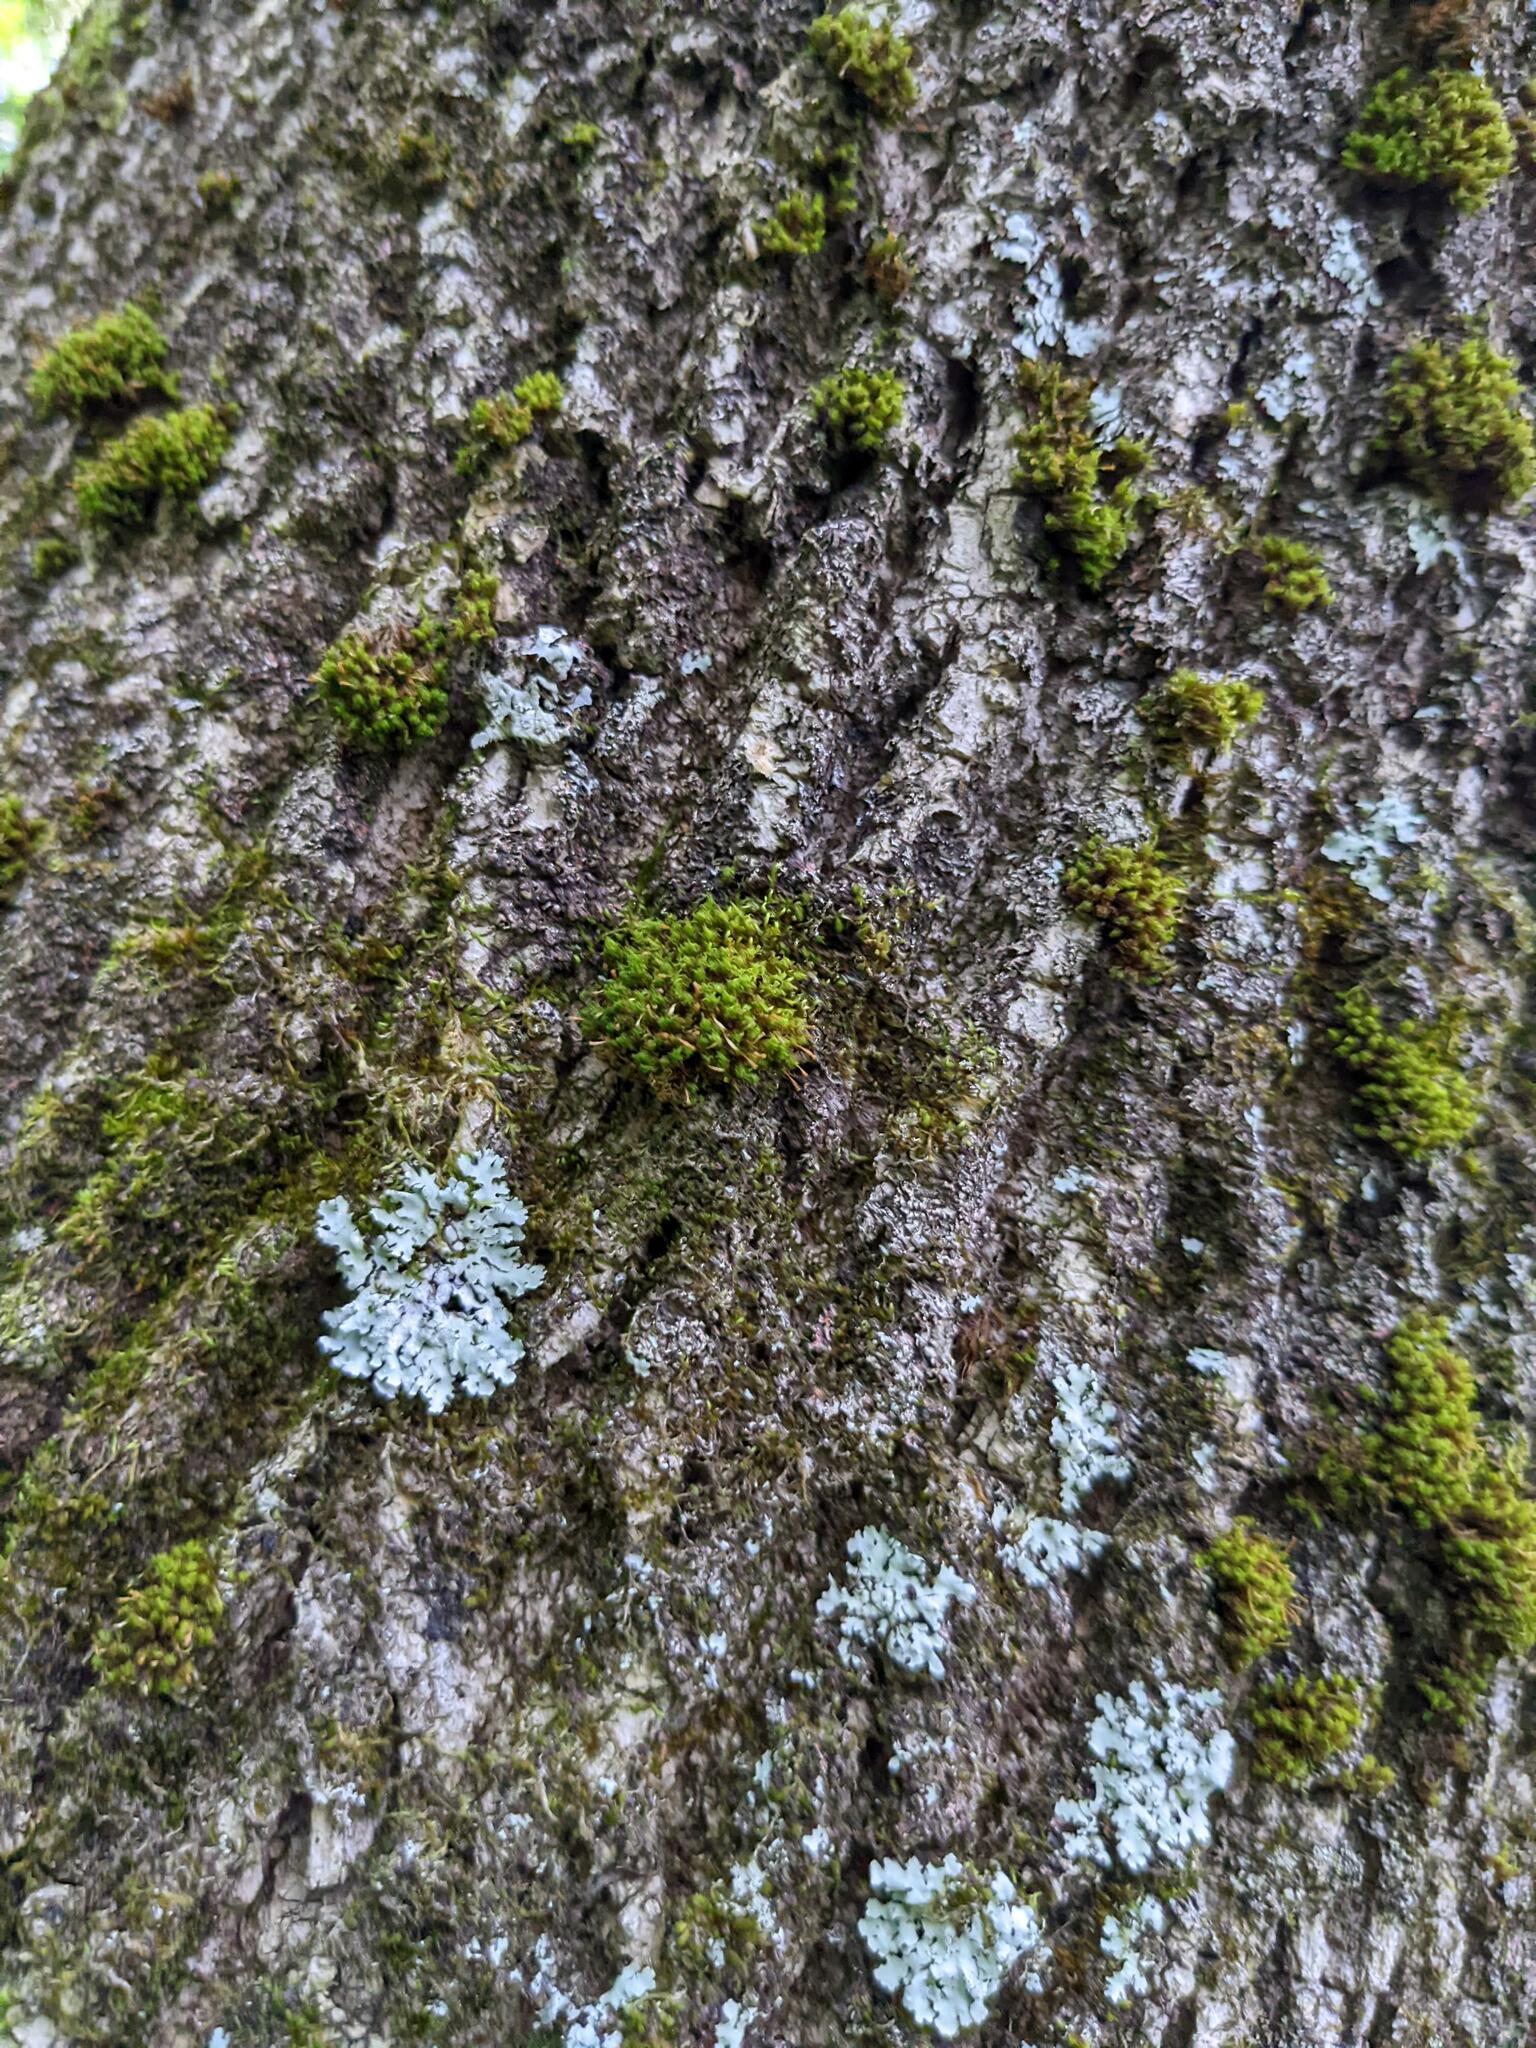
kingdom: Plantae
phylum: Bryophyta
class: Bryopsida
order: Orthotrichales
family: Orthotrichaceae
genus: Ulota
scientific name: Ulota crispa
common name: Crisped pincushion moss
